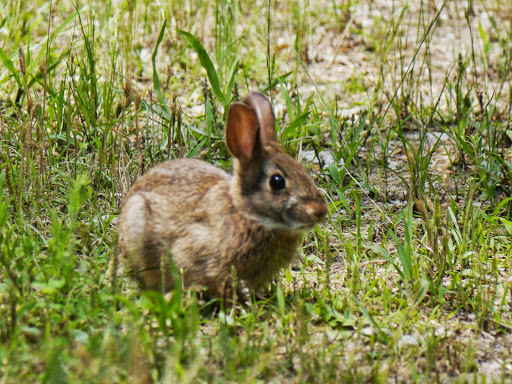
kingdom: Animalia
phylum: Chordata
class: Mammalia
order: Lagomorpha
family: Leporidae
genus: Sylvilagus
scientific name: Sylvilagus floridanus
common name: Eastern cottontail
